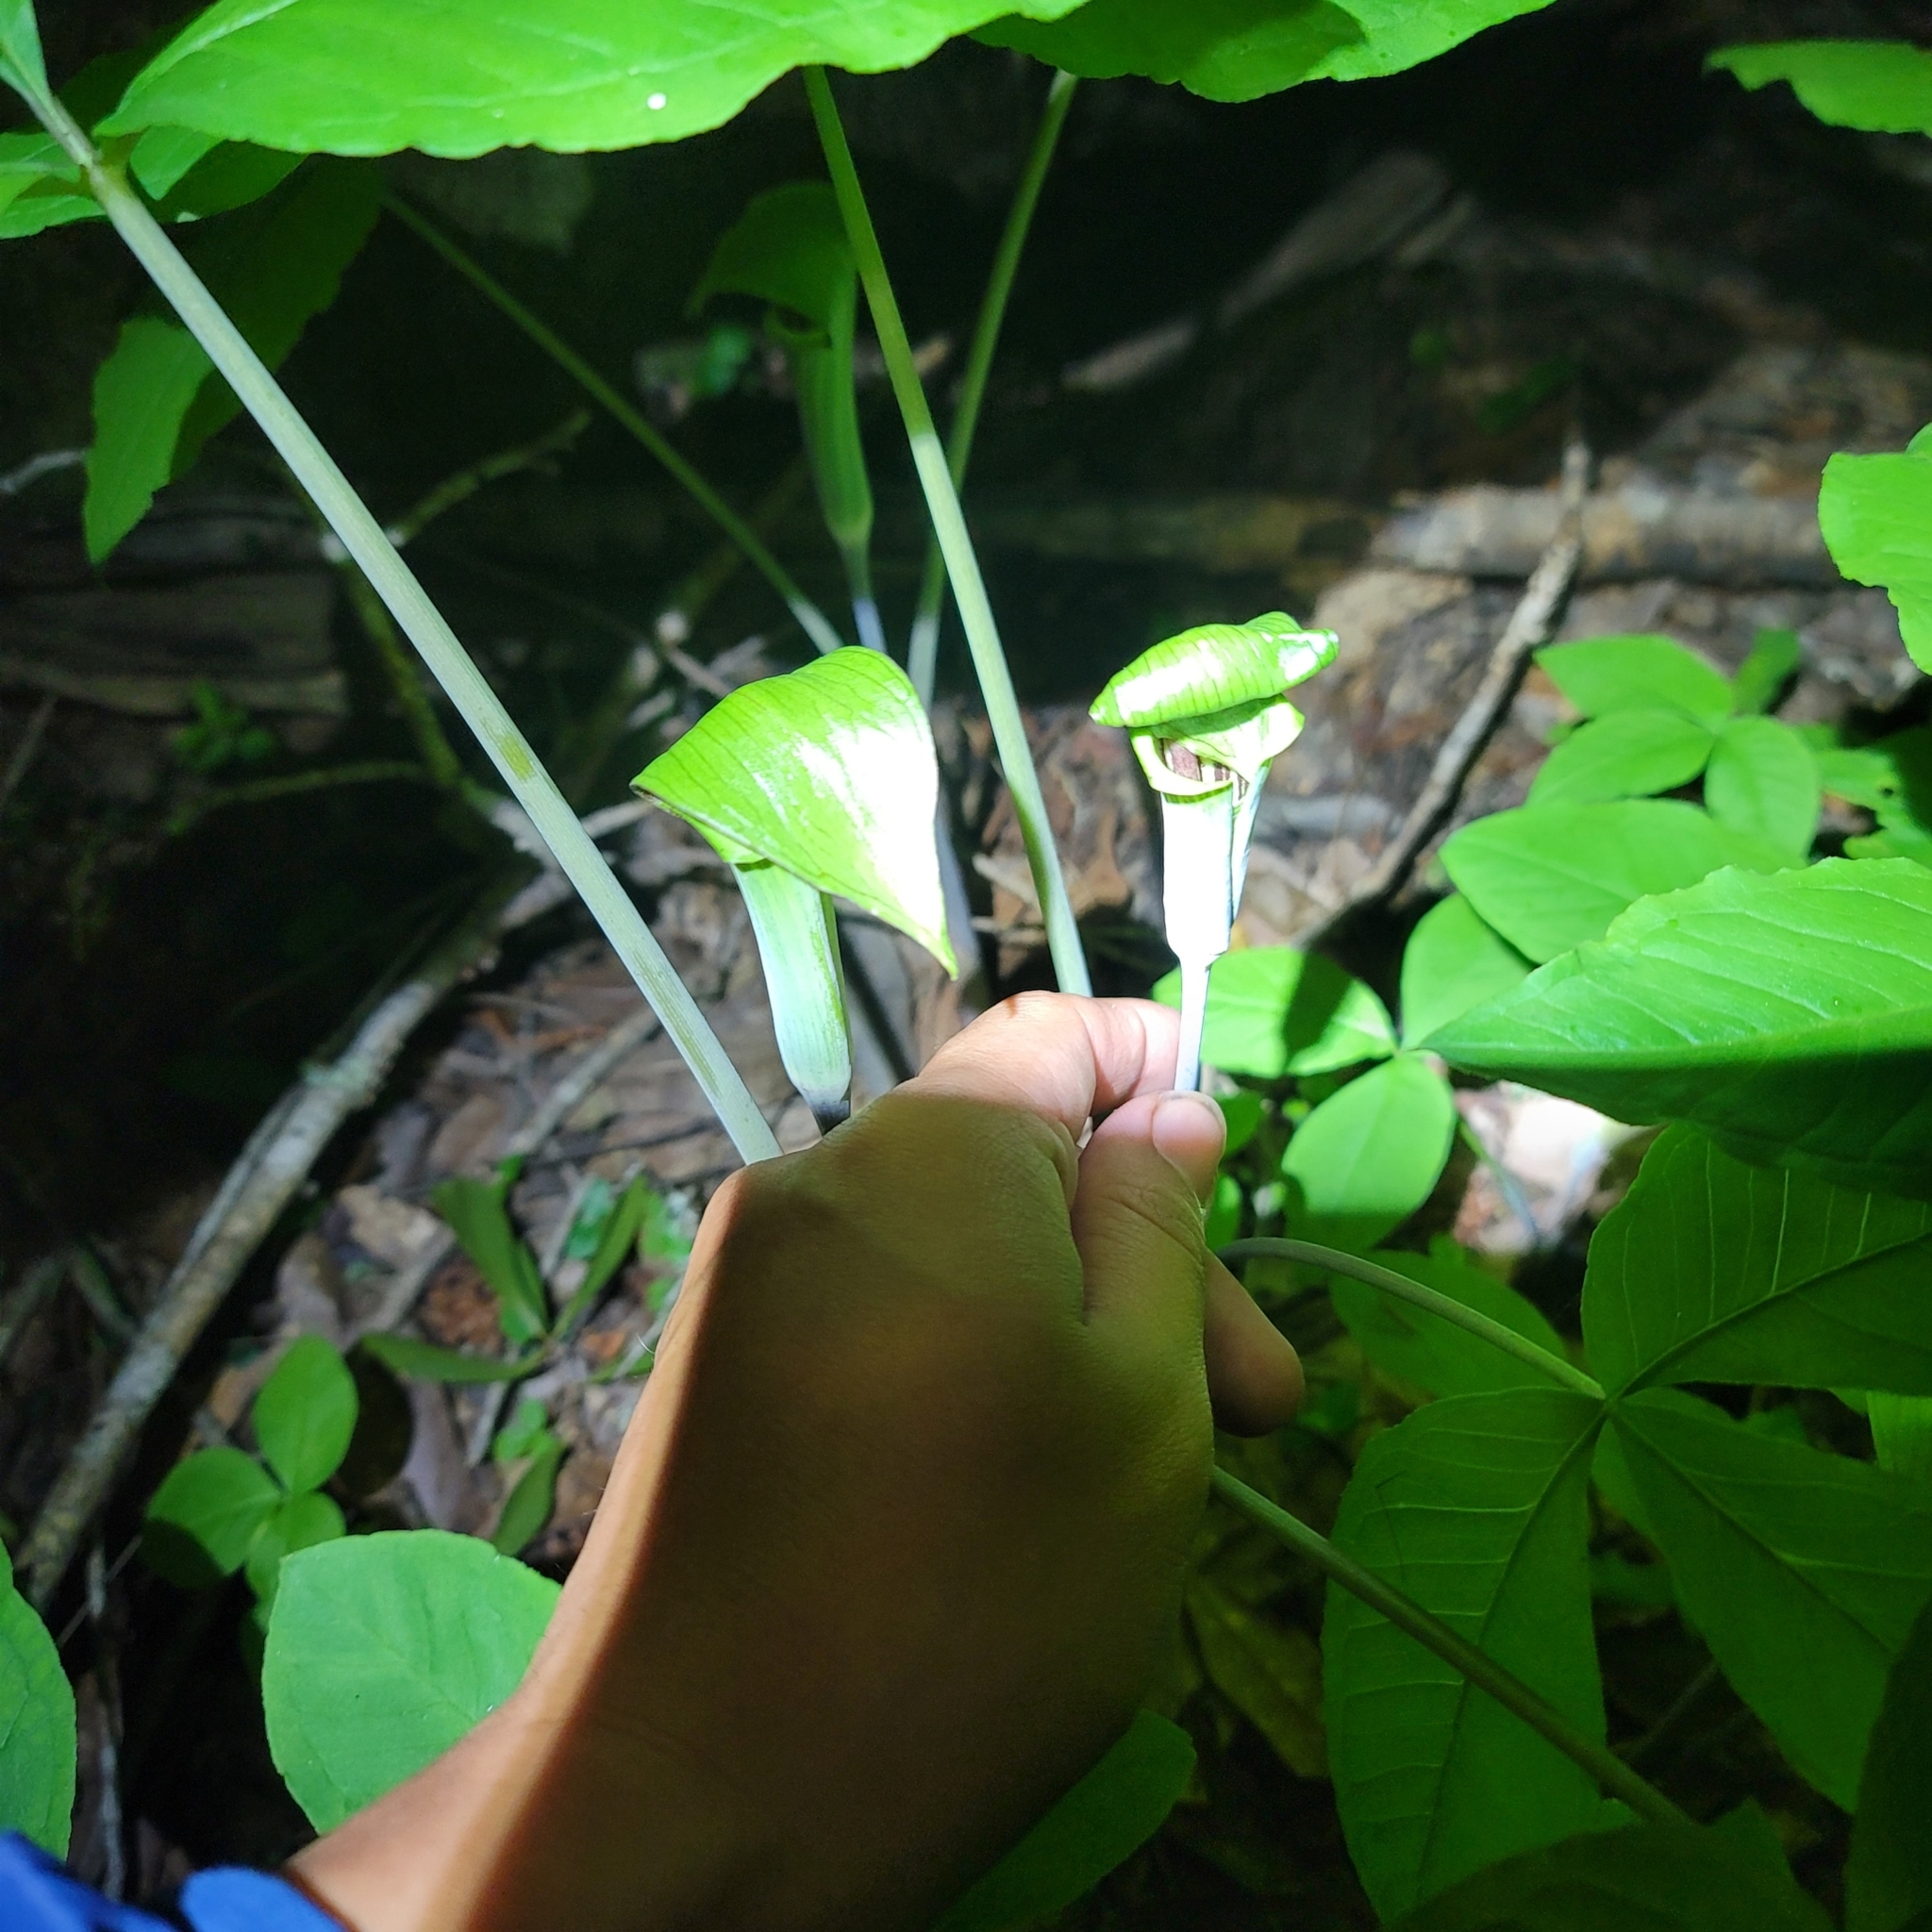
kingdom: Plantae
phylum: Tracheophyta
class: Liliopsida
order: Alismatales
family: Araceae
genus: Arisaema
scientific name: Arisaema triphyllum
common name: Jack-in-the-pulpit
